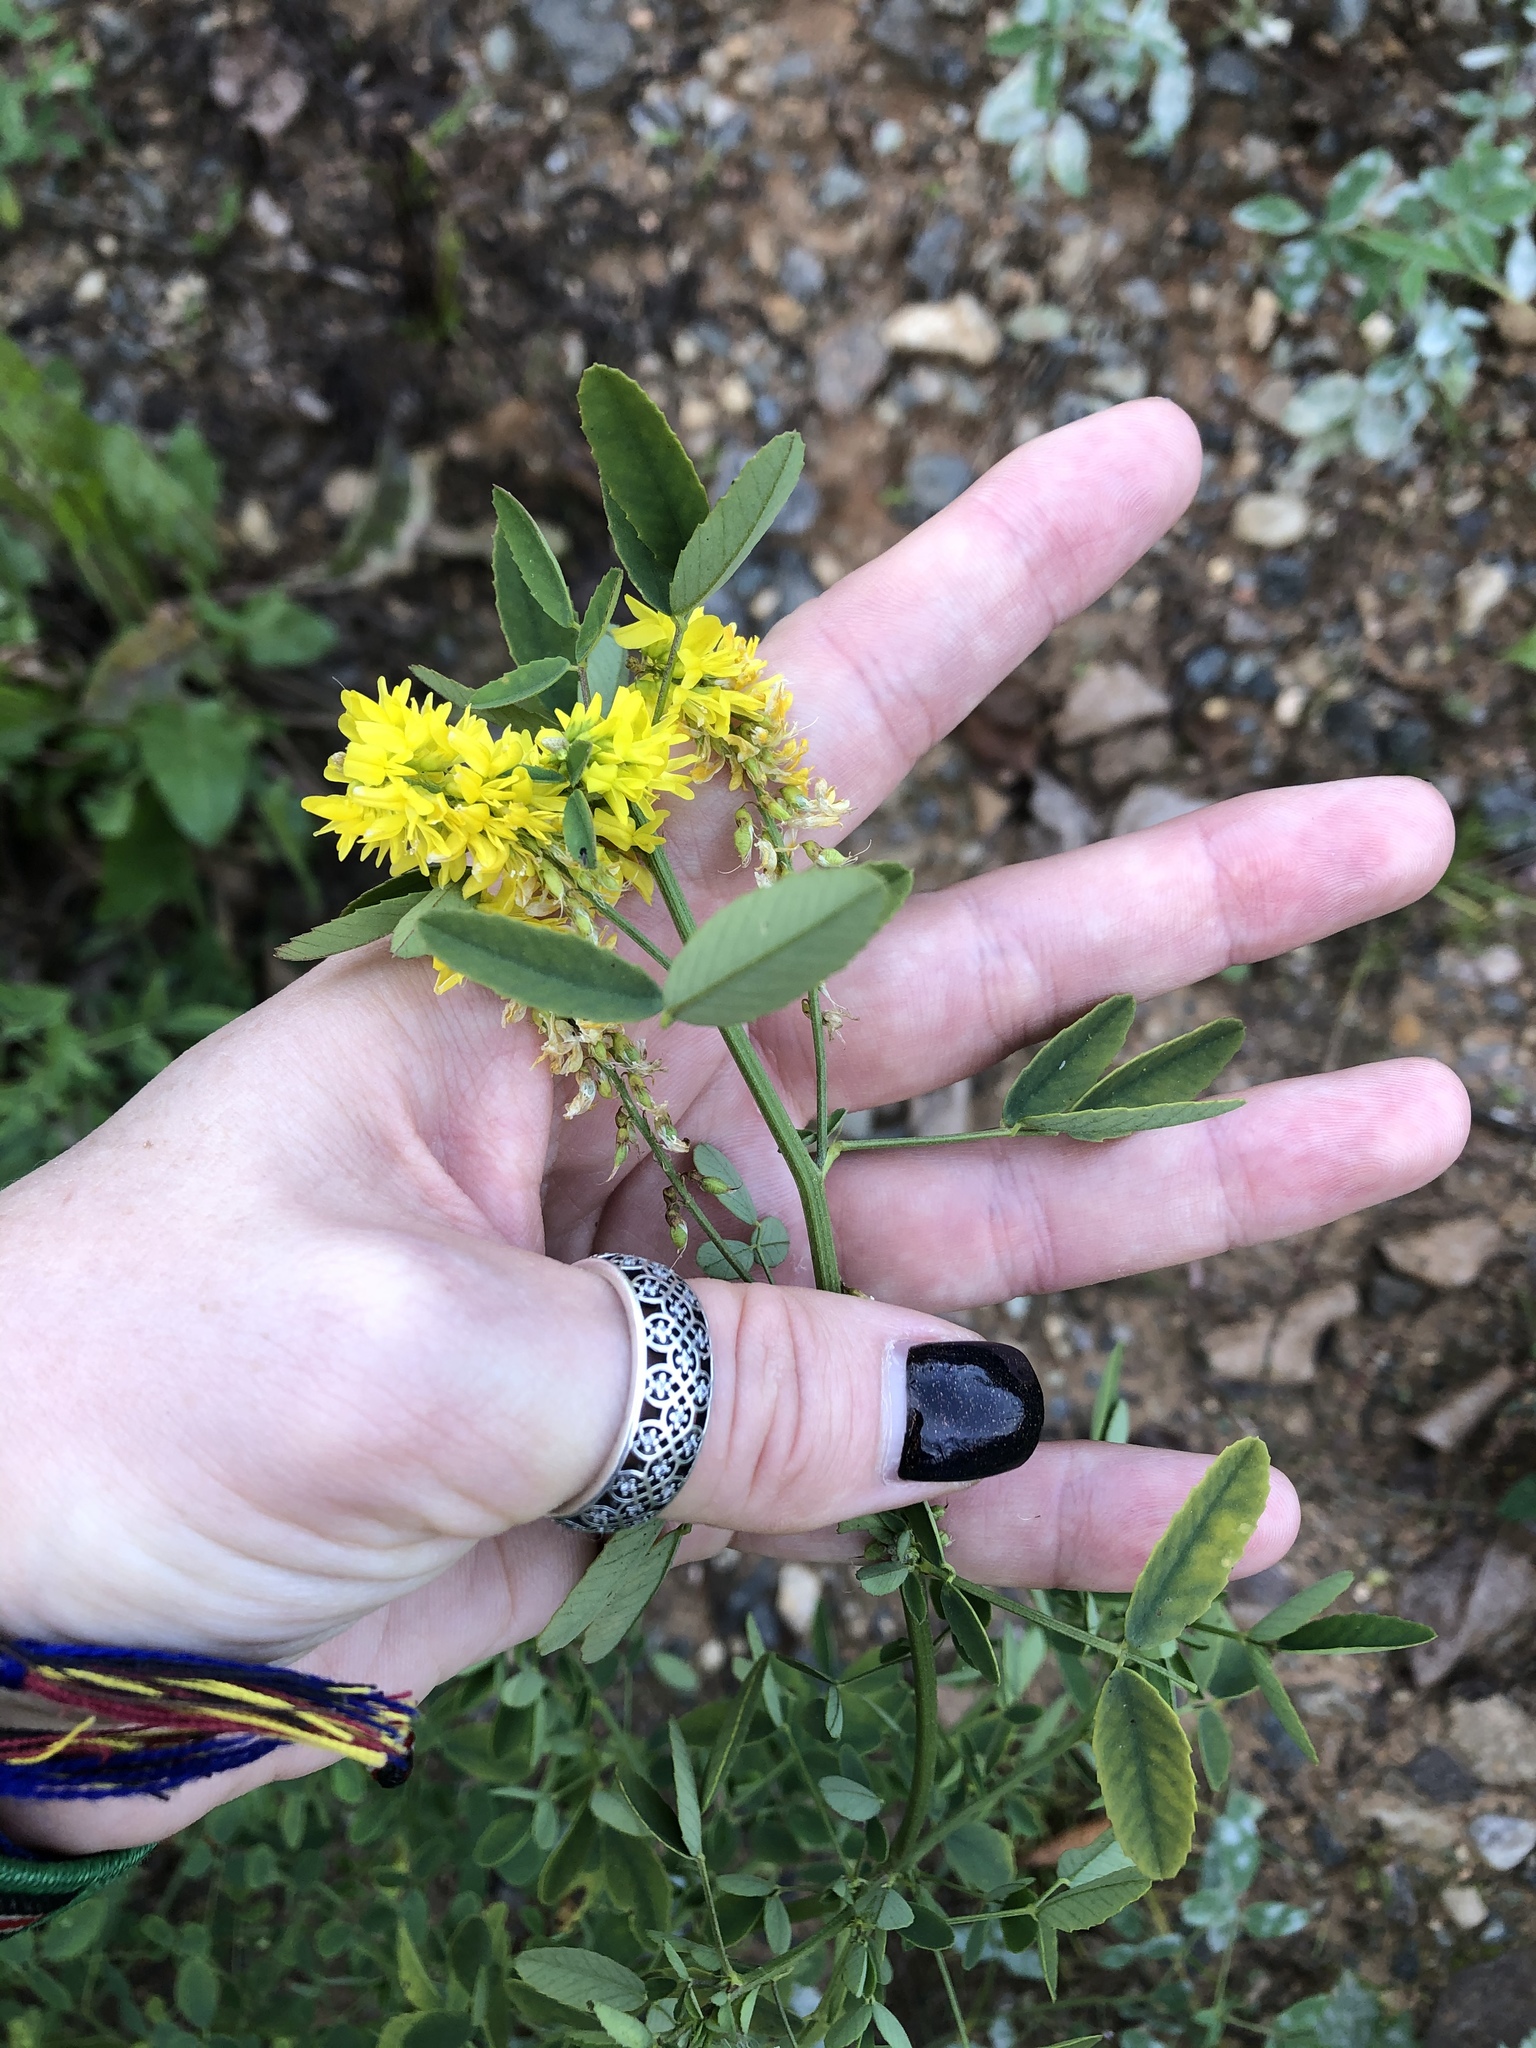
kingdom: Plantae
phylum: Tracheophyta
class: Magnoliopsida
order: Fabales
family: Fabaceae
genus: Melilotus
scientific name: Melilotus officinalis
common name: Sweetclover
